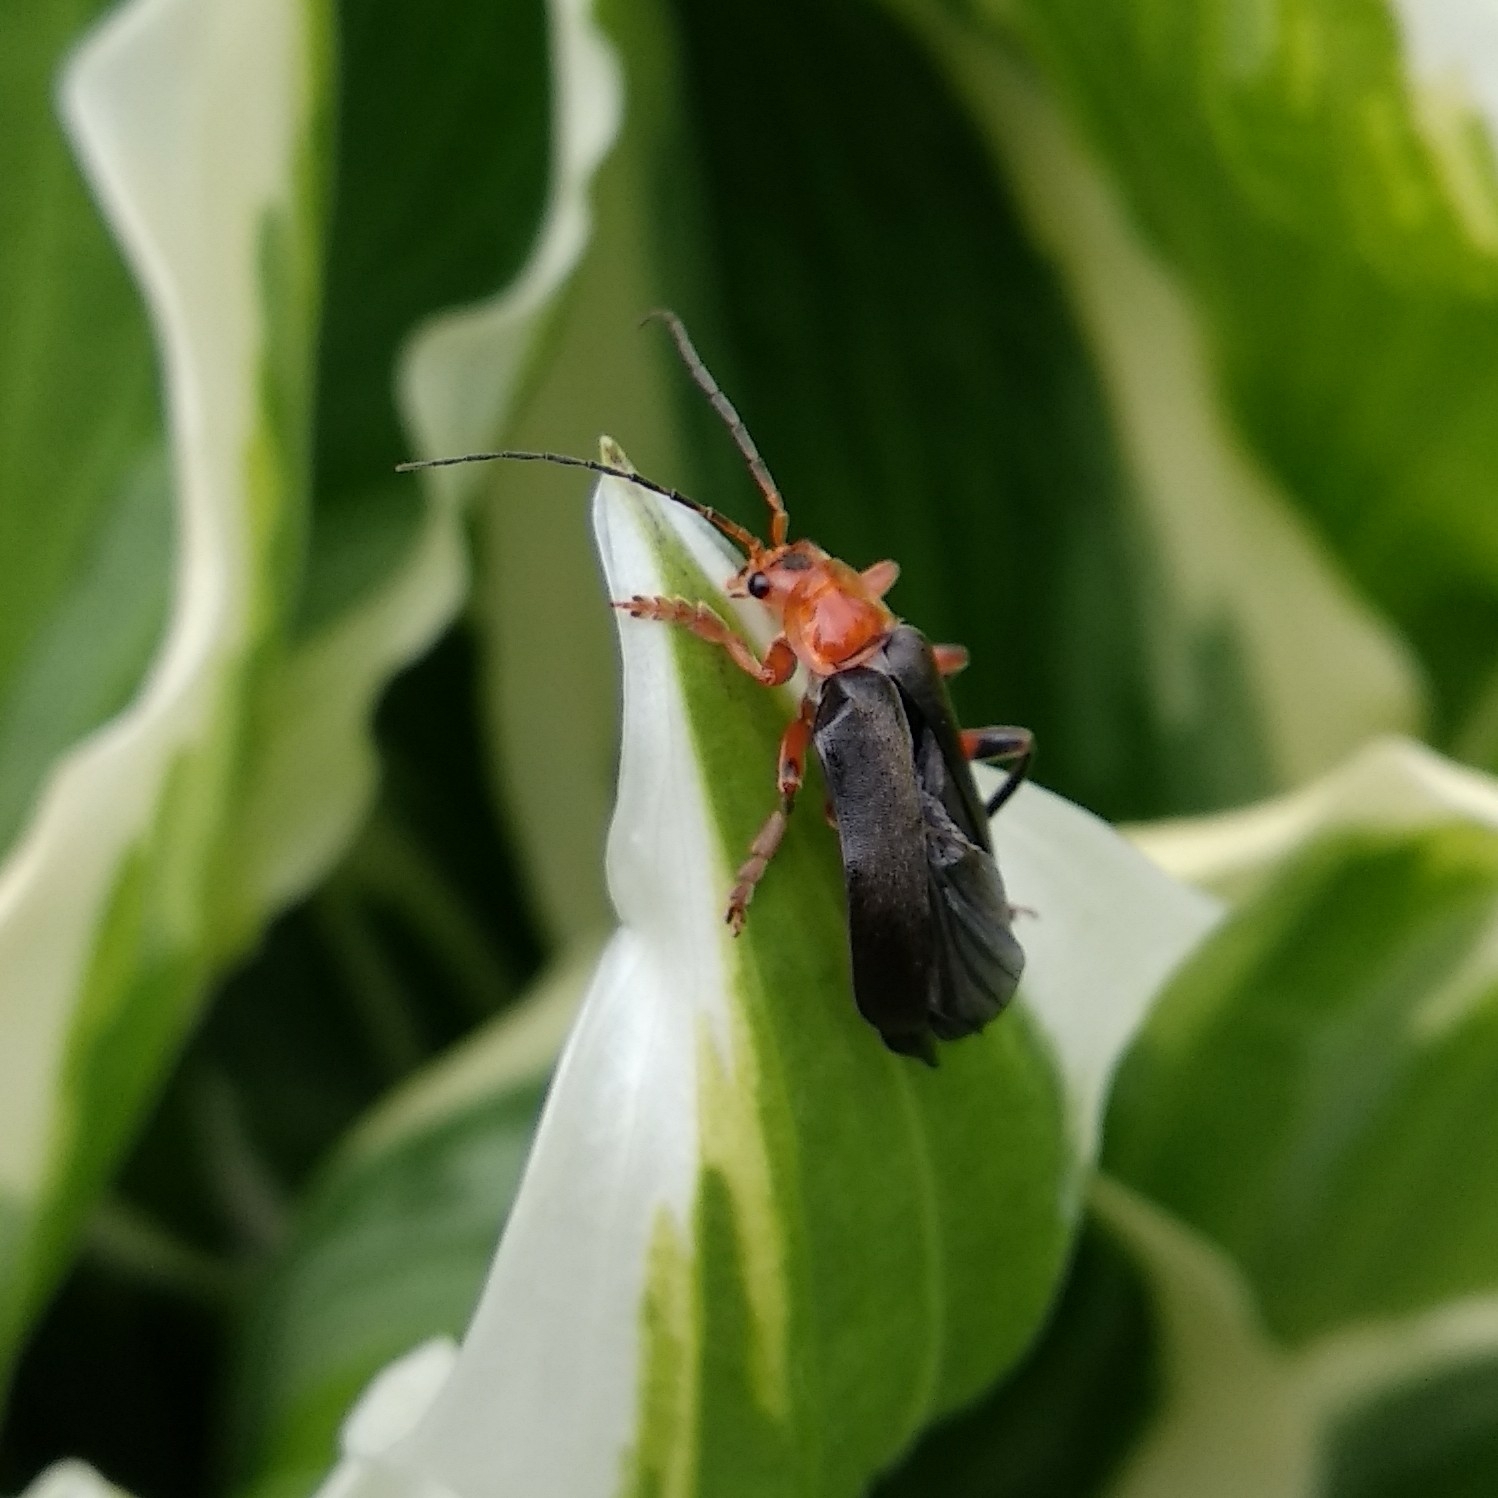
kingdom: Animalia
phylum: Arthropoda
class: Insecta
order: Coleoptera
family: Cantharidae
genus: Cantharis
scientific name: Cantharis livida
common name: Livid soldier beetle
